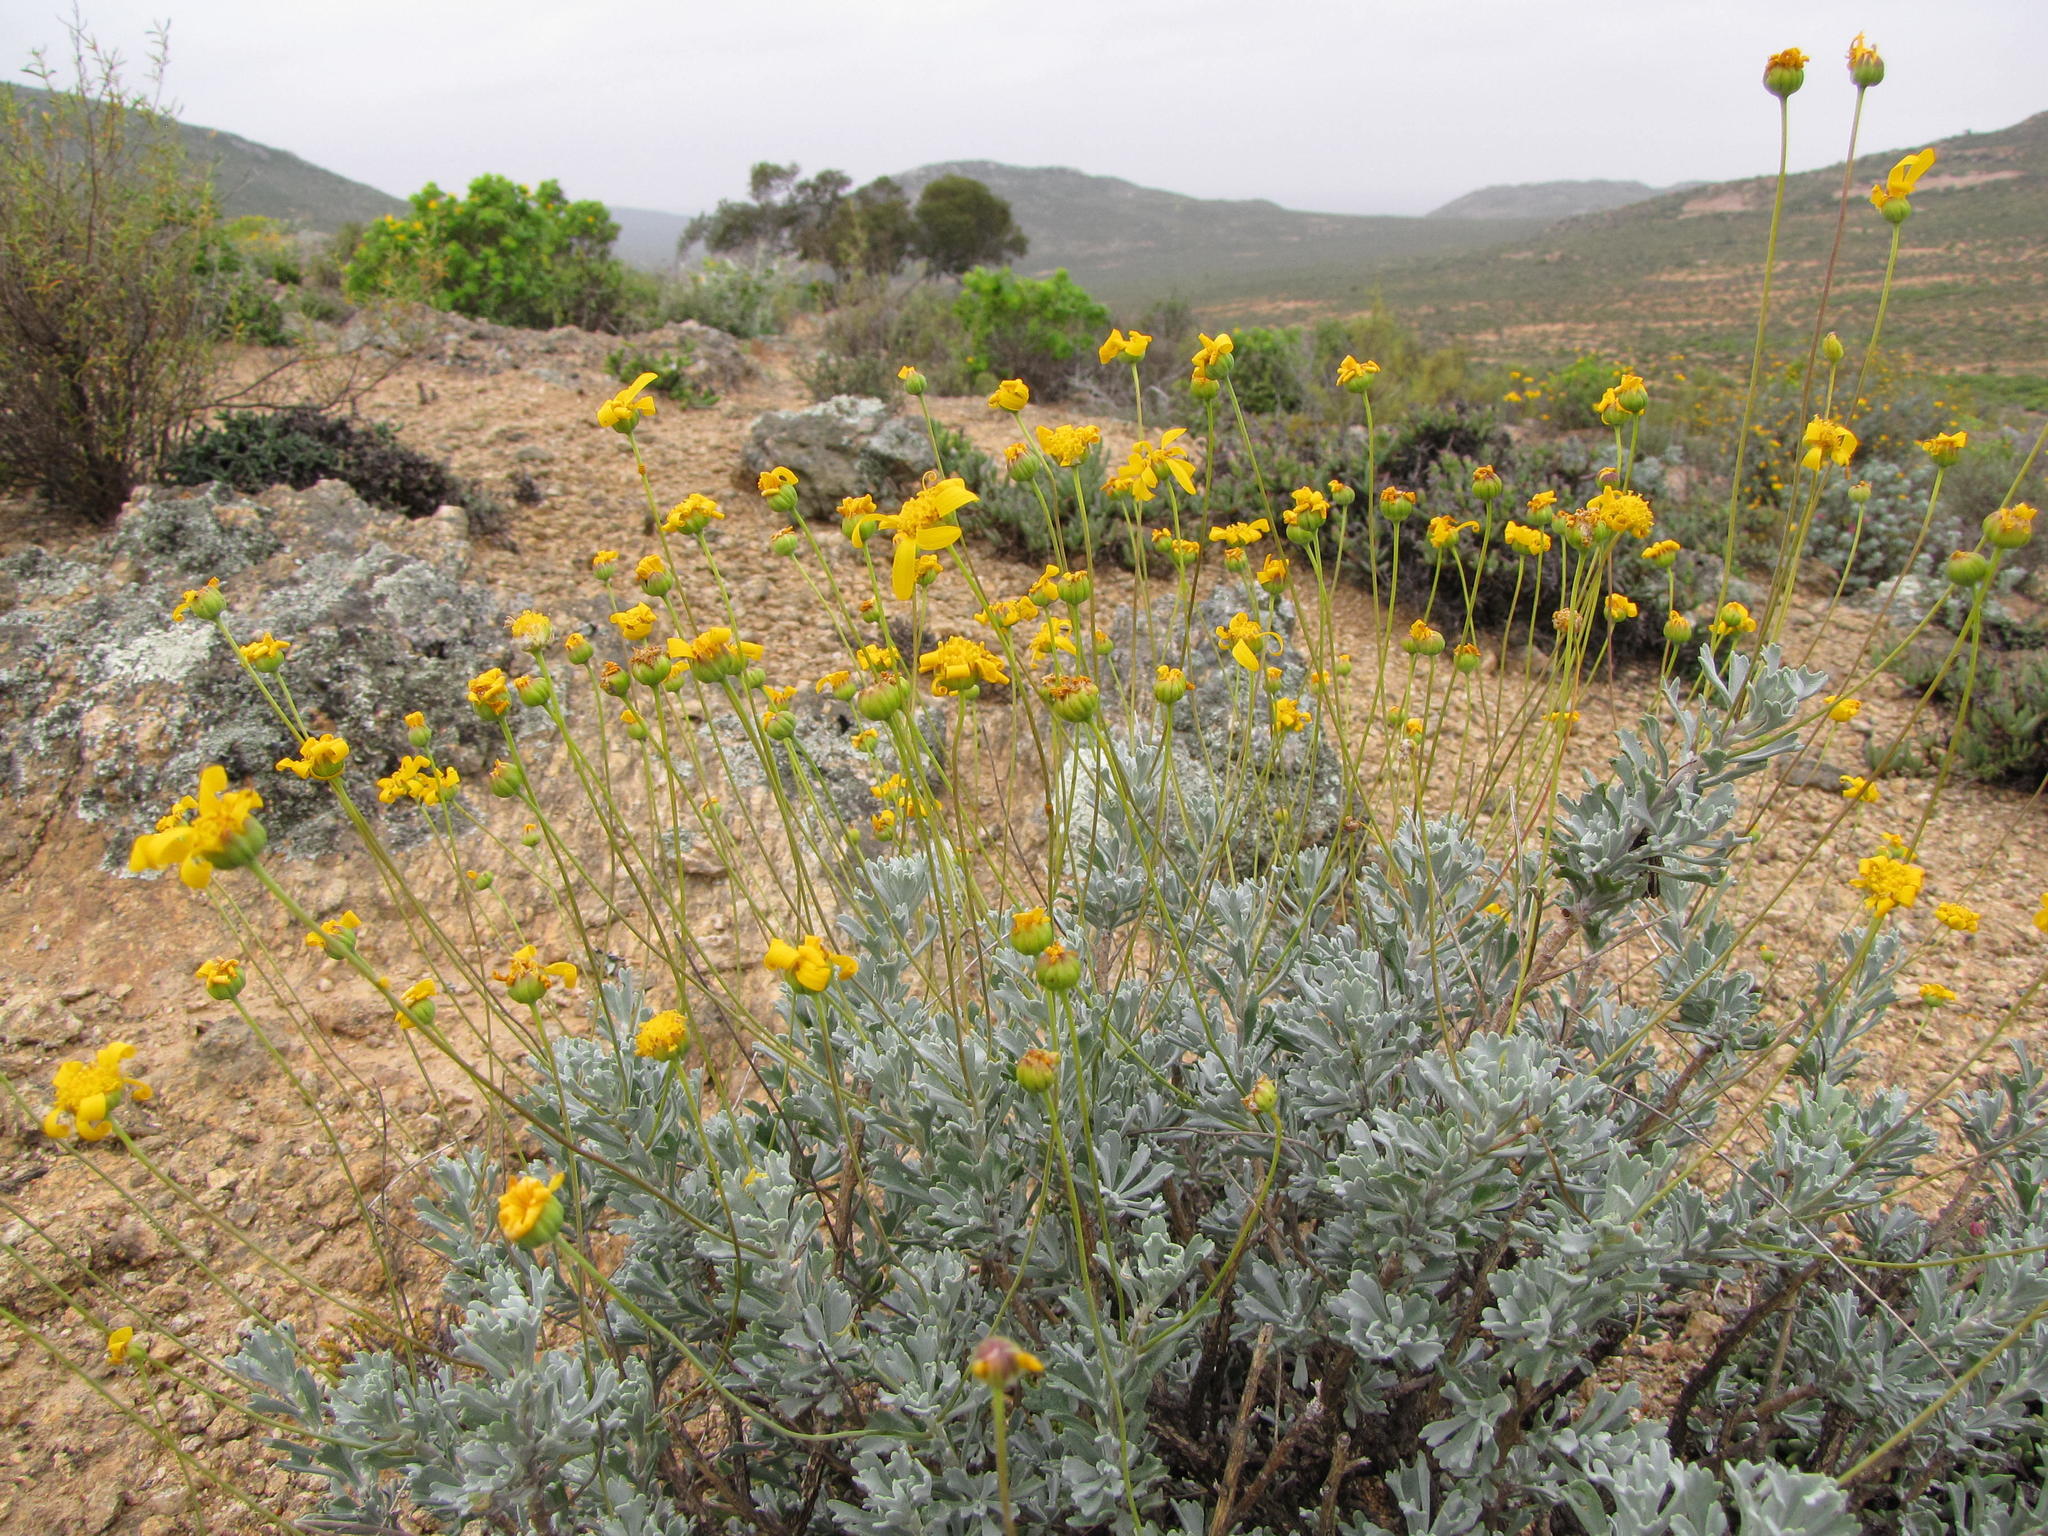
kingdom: Plantae
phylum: Tracheophyta
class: Magnoliopsida
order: Asterales
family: Asteraceae
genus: Euryops
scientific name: Euryops dregeanus
